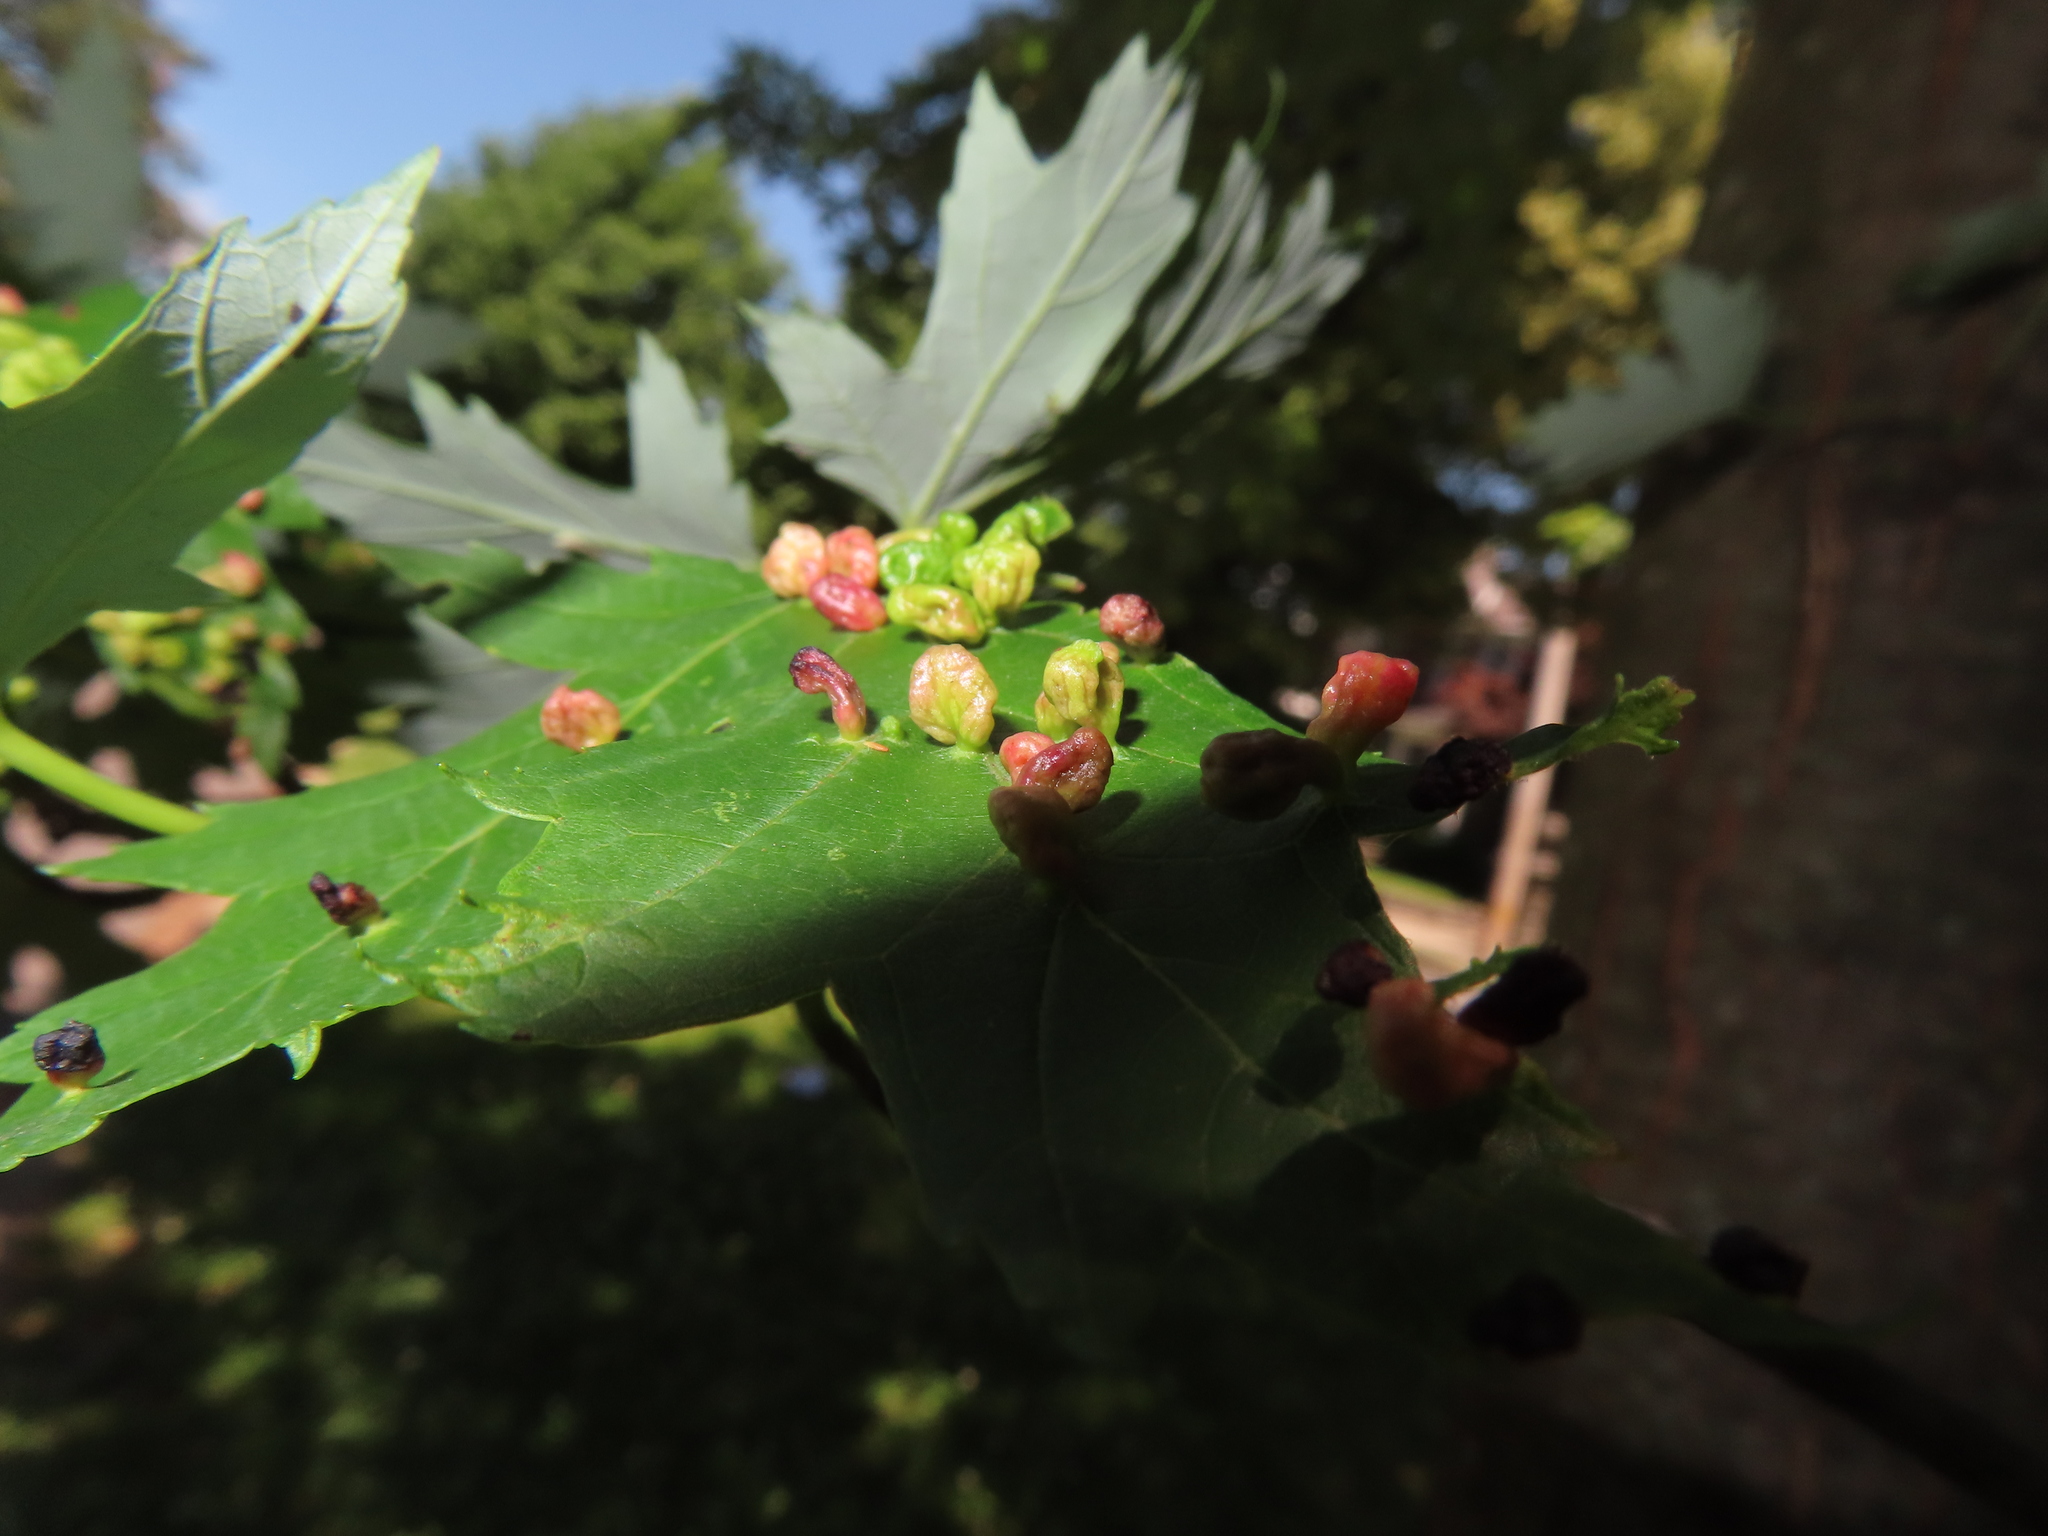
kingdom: Animalia
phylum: Arthropoda
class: Arachnida
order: Trombidiformes
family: Eriophyidae
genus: Vasates
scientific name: Vasates quadripedes
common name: Maple bladder gall mite
